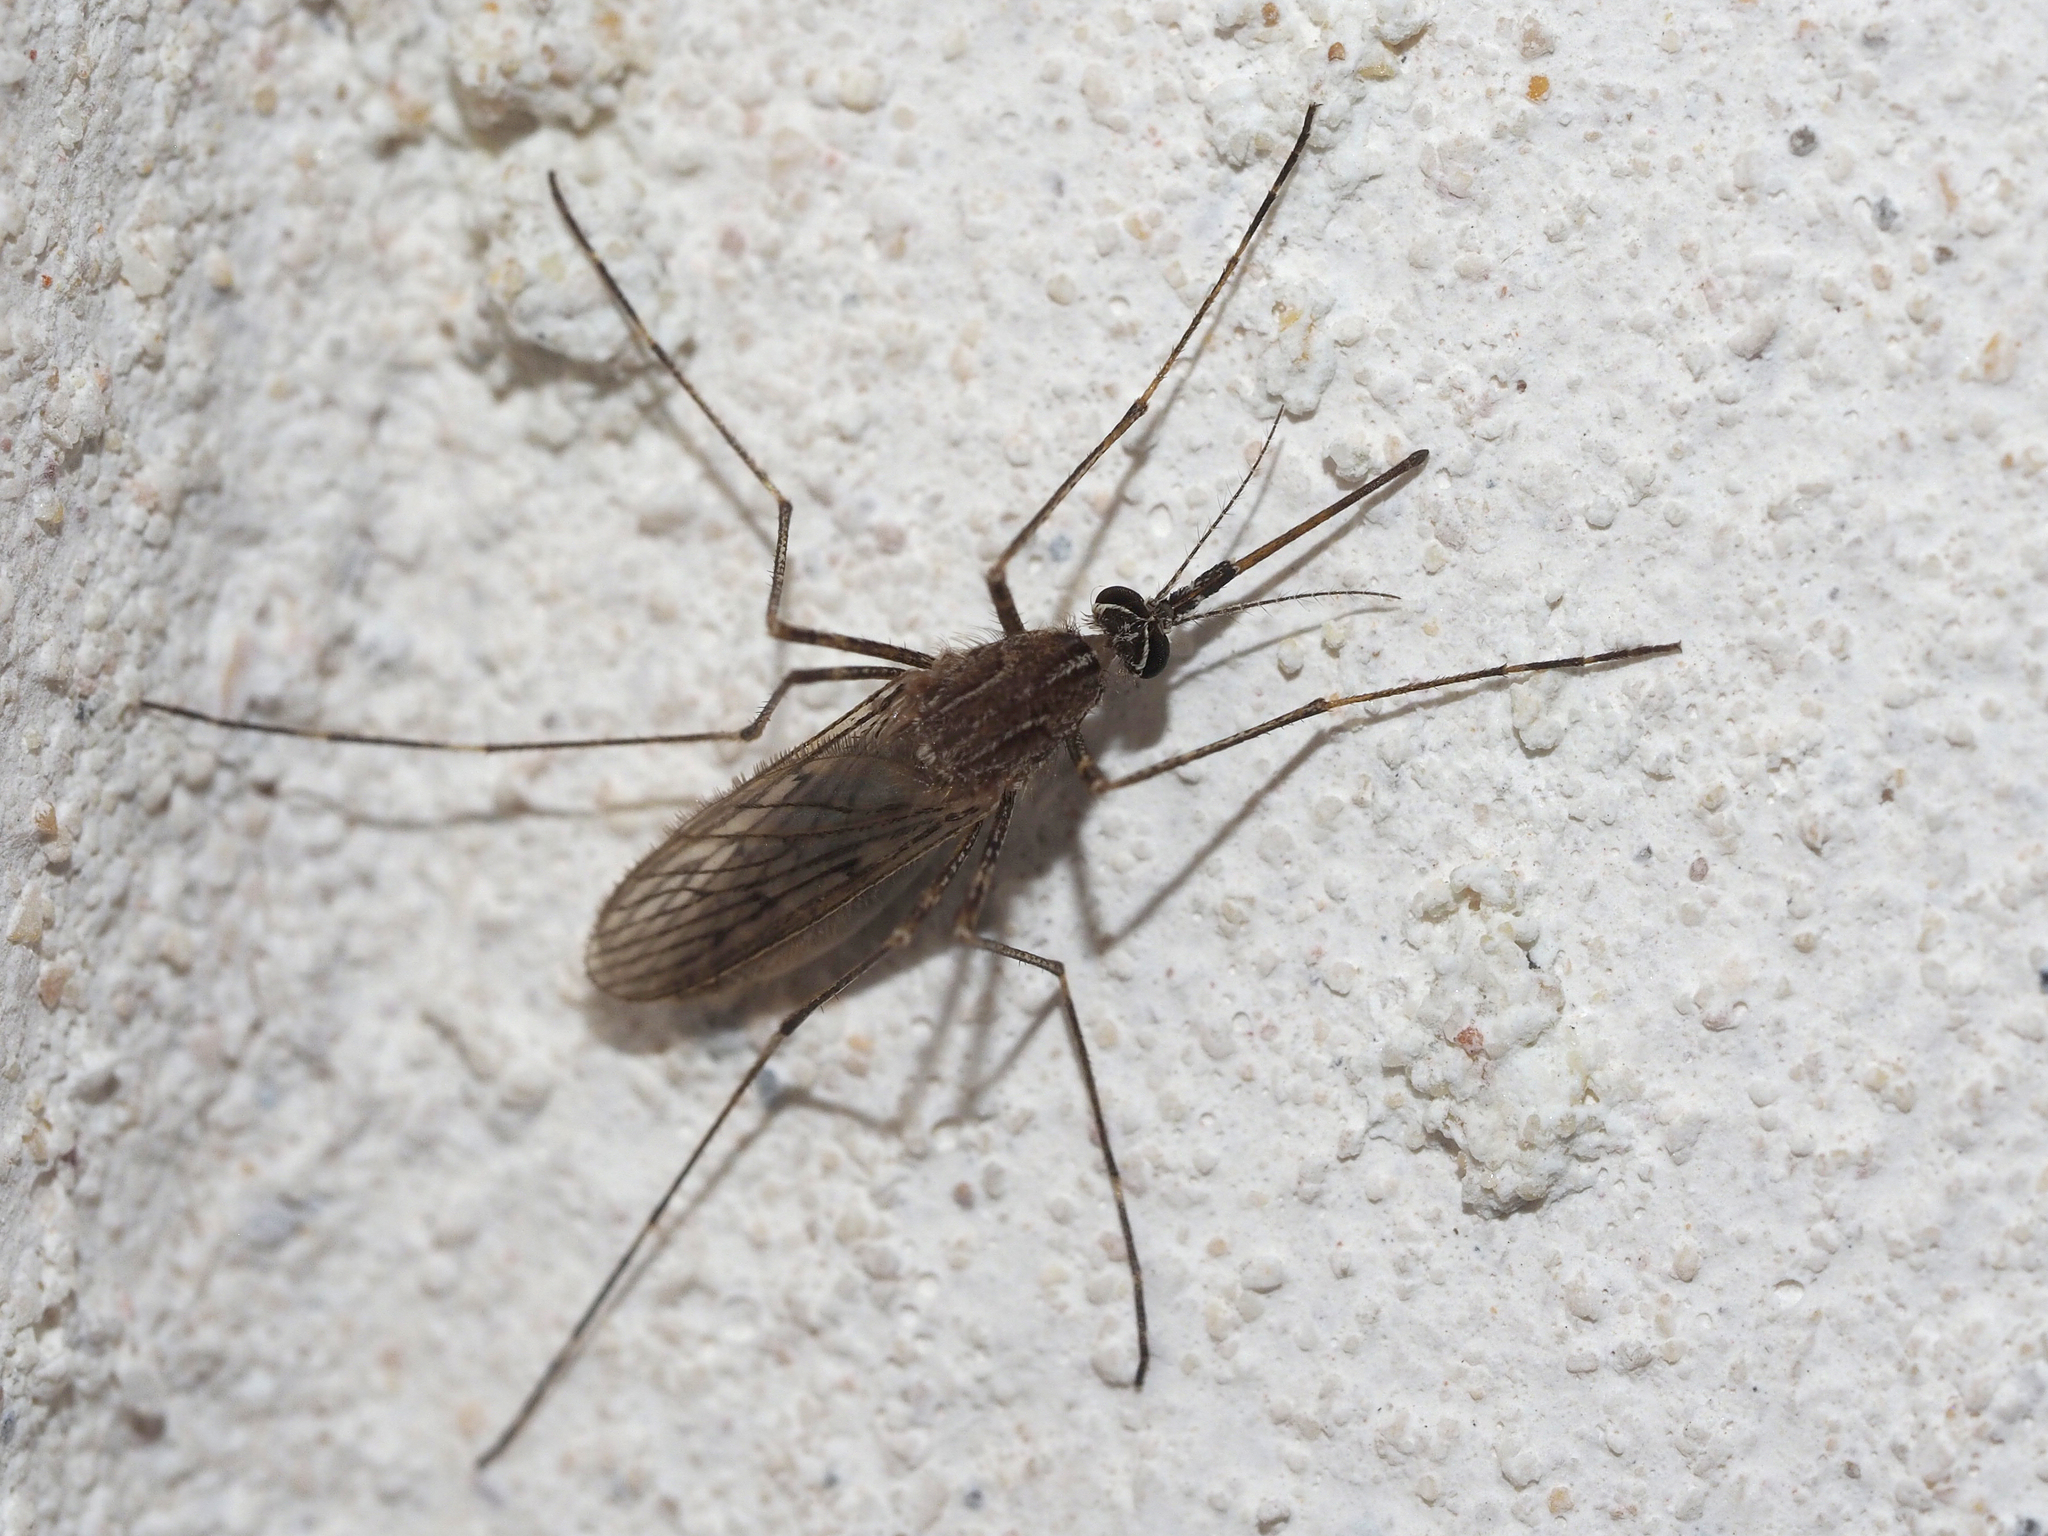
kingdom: Animalia
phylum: Arthropoda
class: Insecta
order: Diptera
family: Culicidae
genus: Culiseta
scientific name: Culiseta longiareolata
